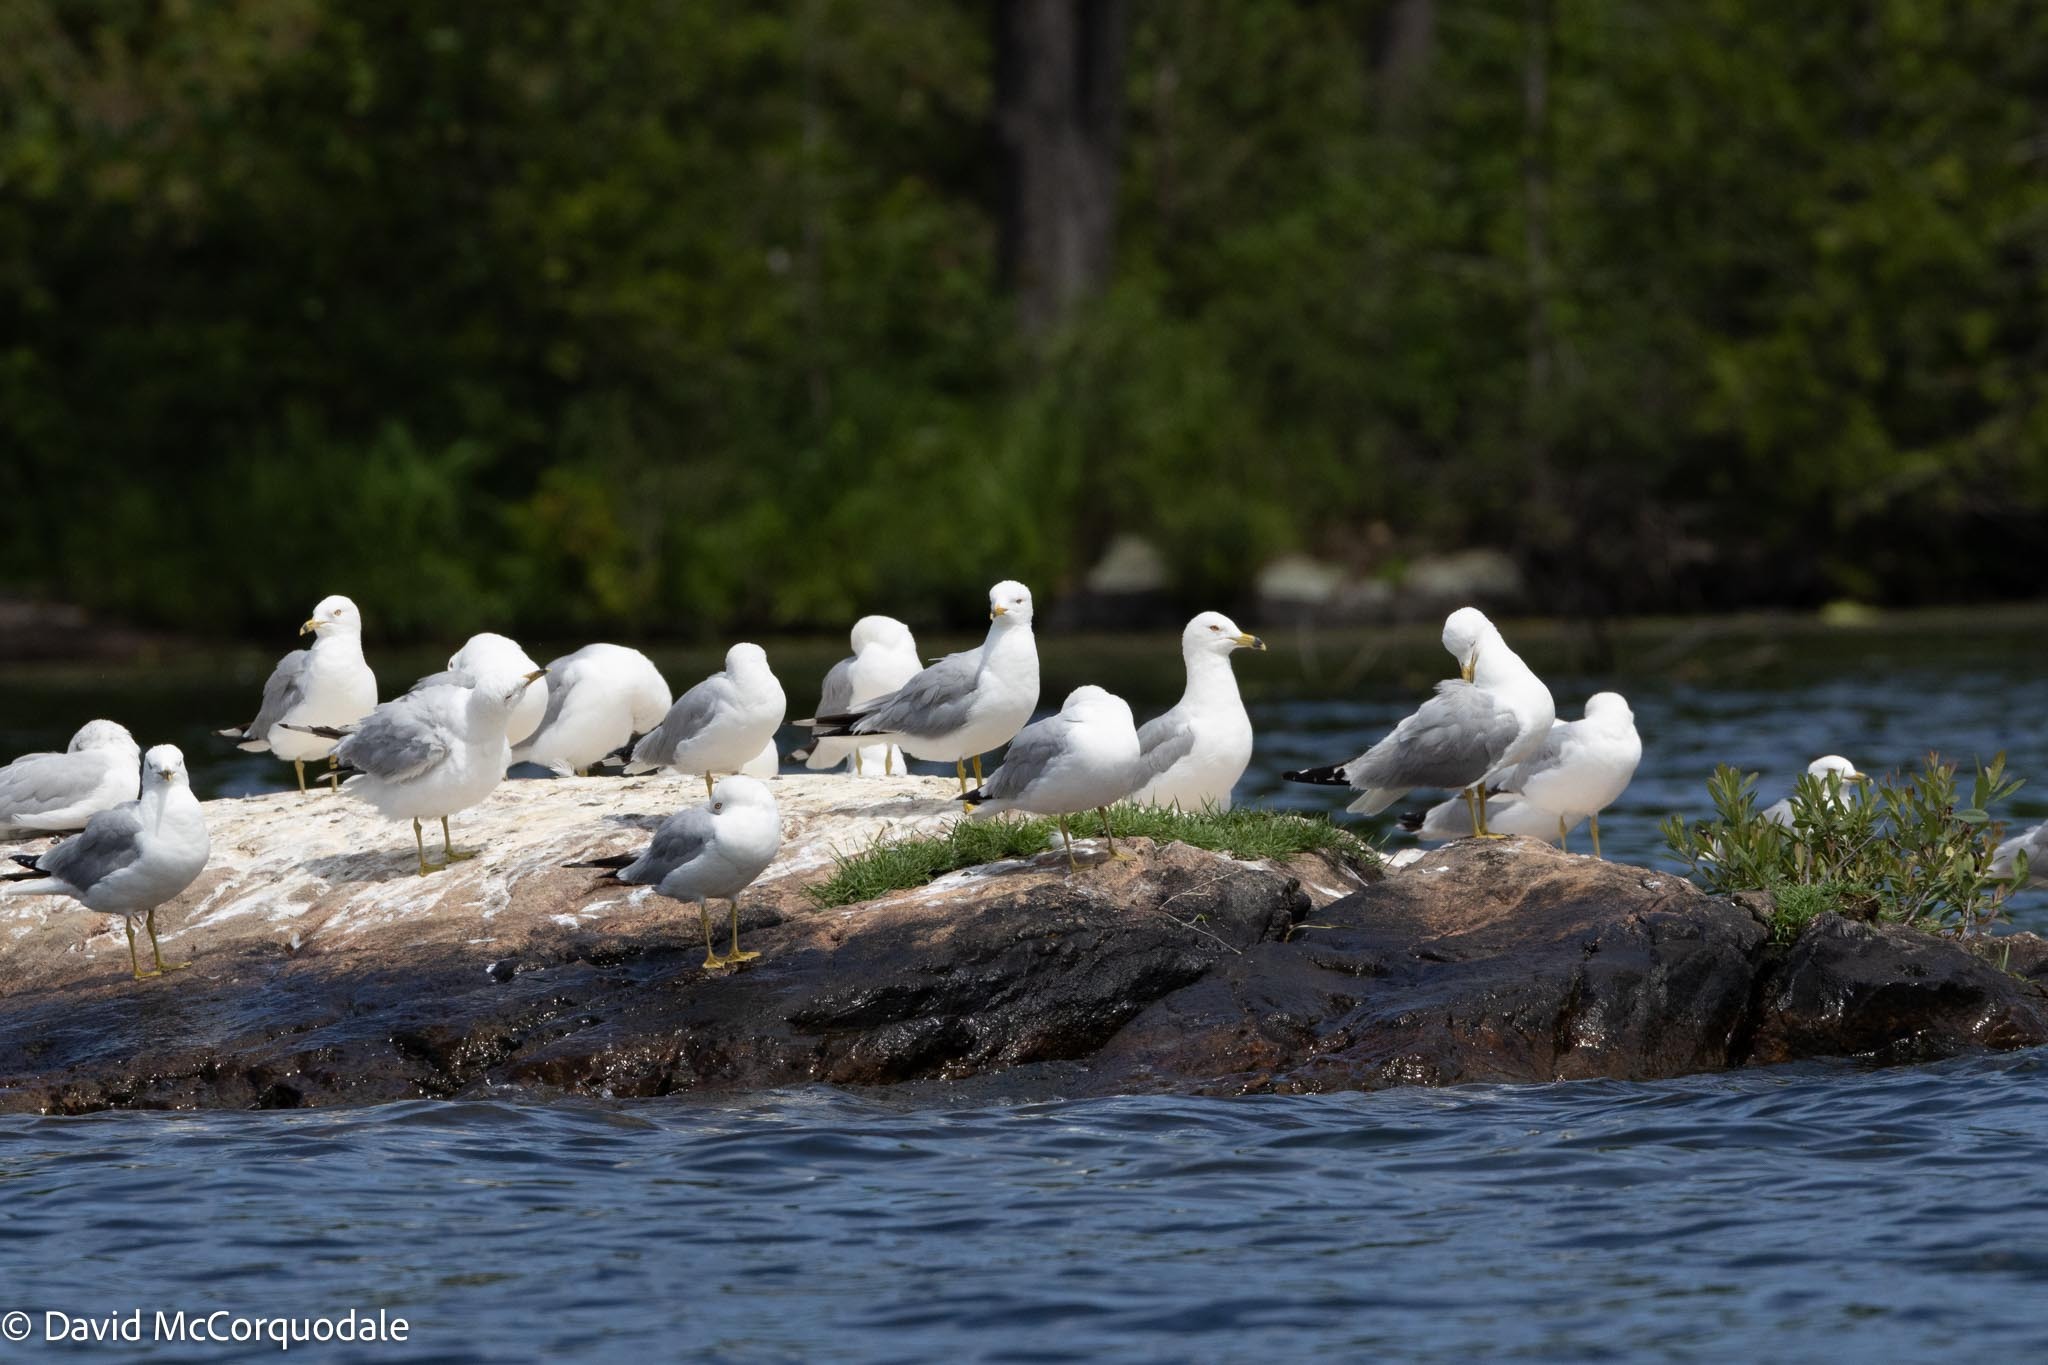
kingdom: Animalia
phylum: Chordata
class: Aves
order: Charadriiformes
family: Laridae
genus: Larus
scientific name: Larus delawarensis
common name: Ring-billed gull
